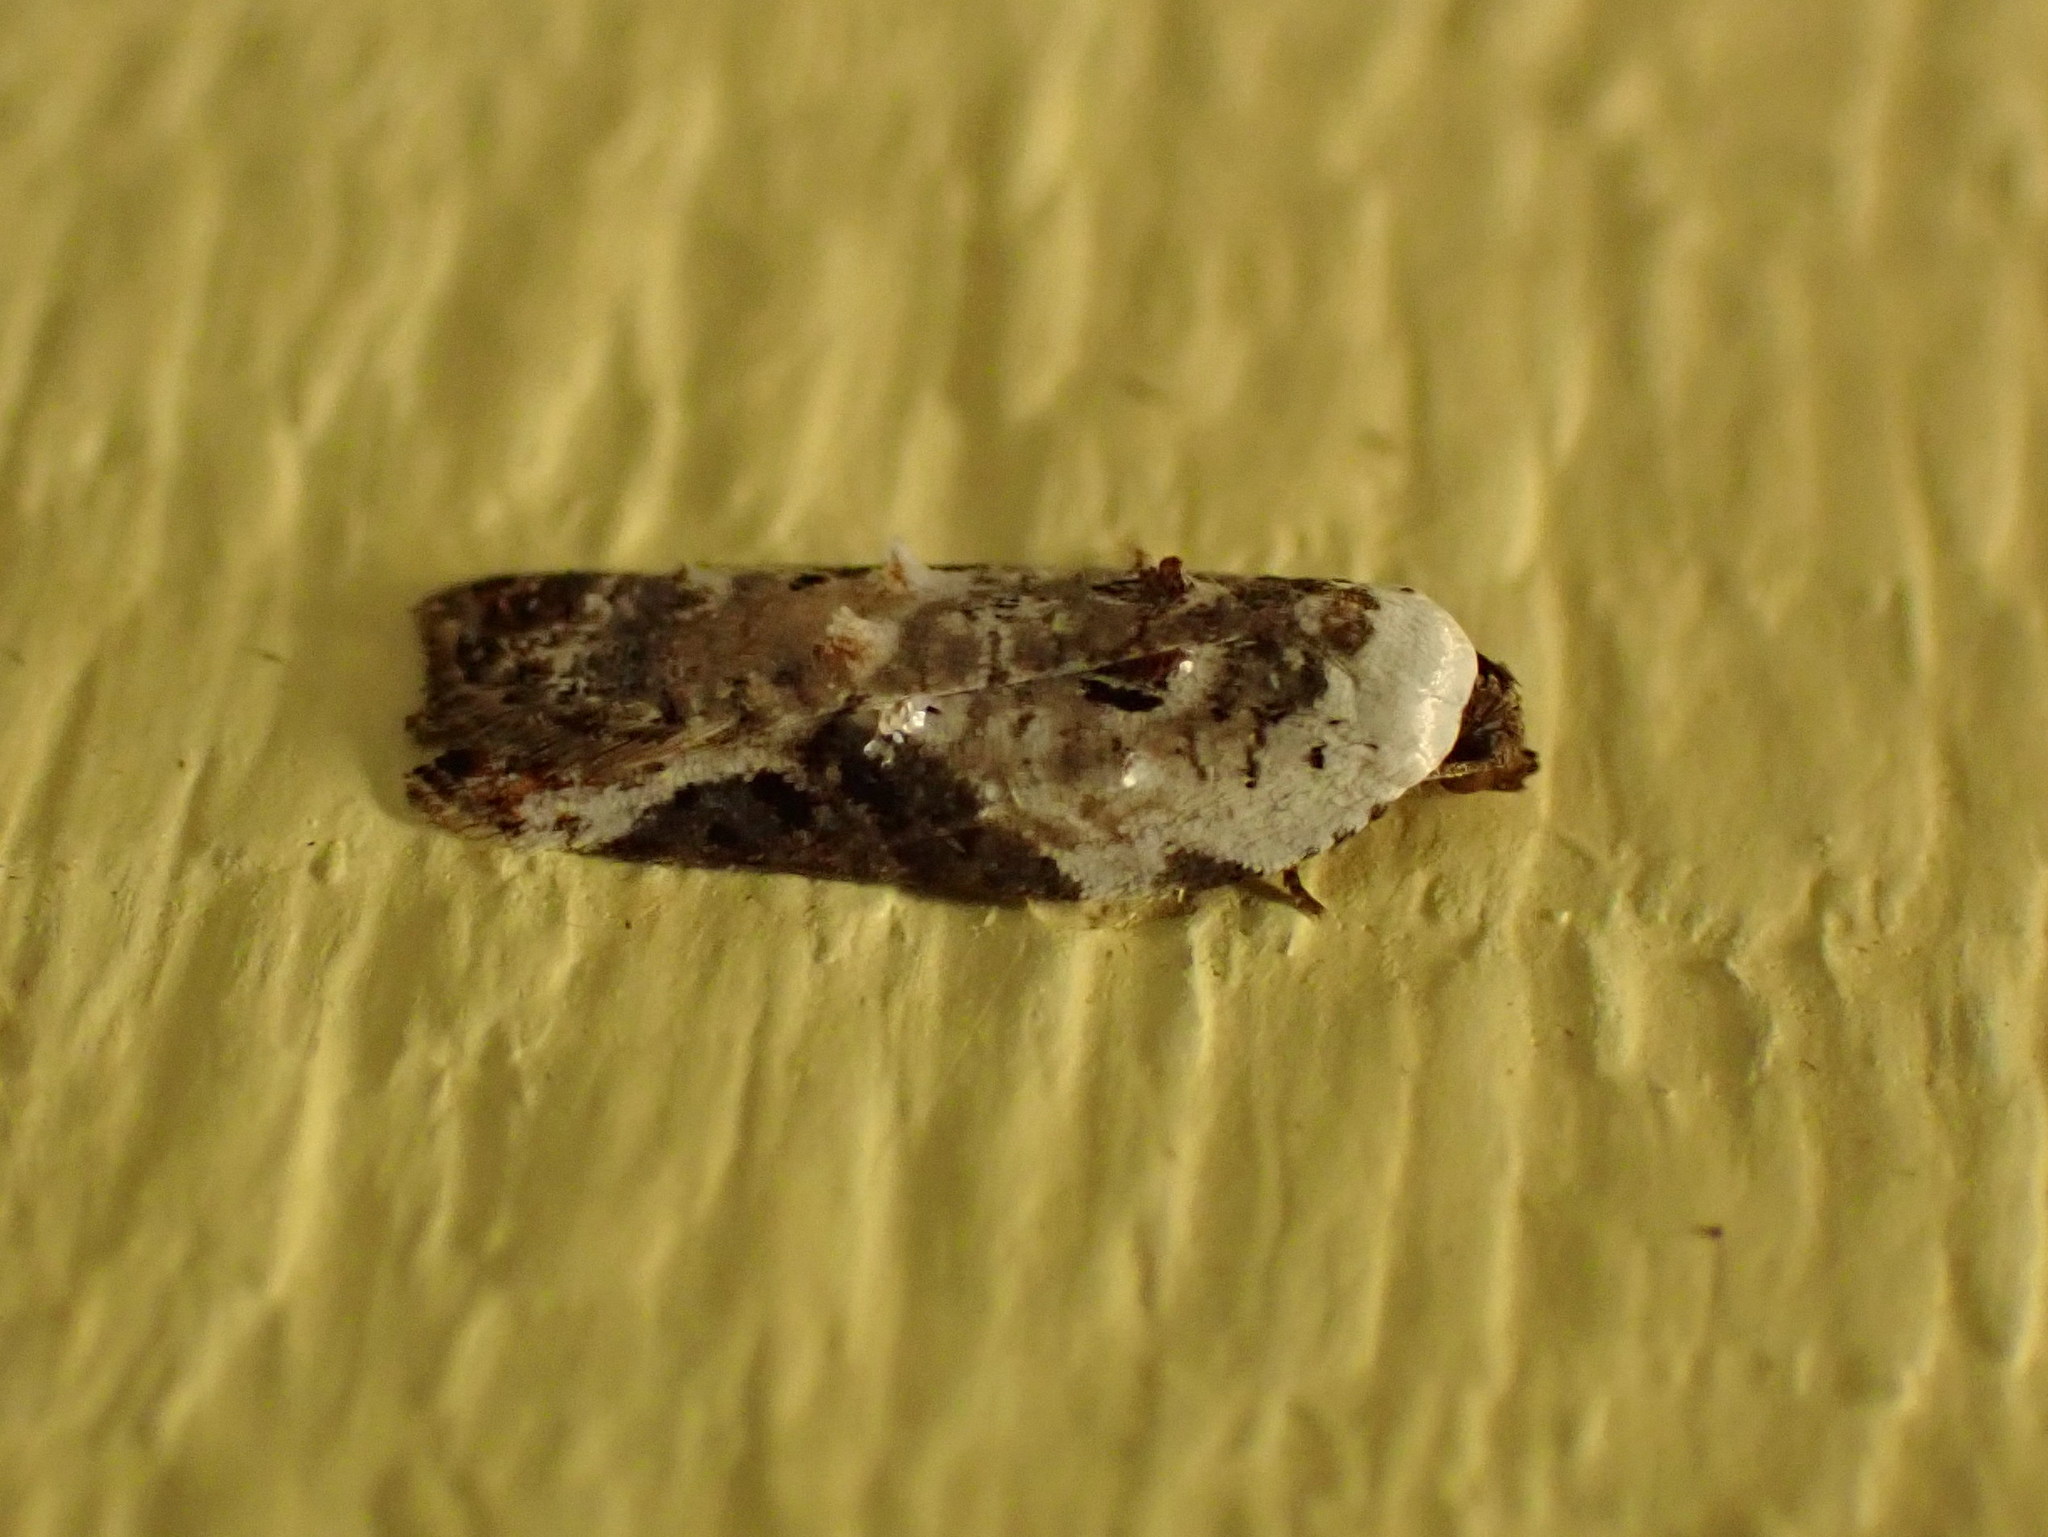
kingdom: Animalia
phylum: Arthropoda
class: Insecta
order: Lepidoptera
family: Tortricidae
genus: Acleris
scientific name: Acleris nivisellana
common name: Snowy-shouldered acleris moth
